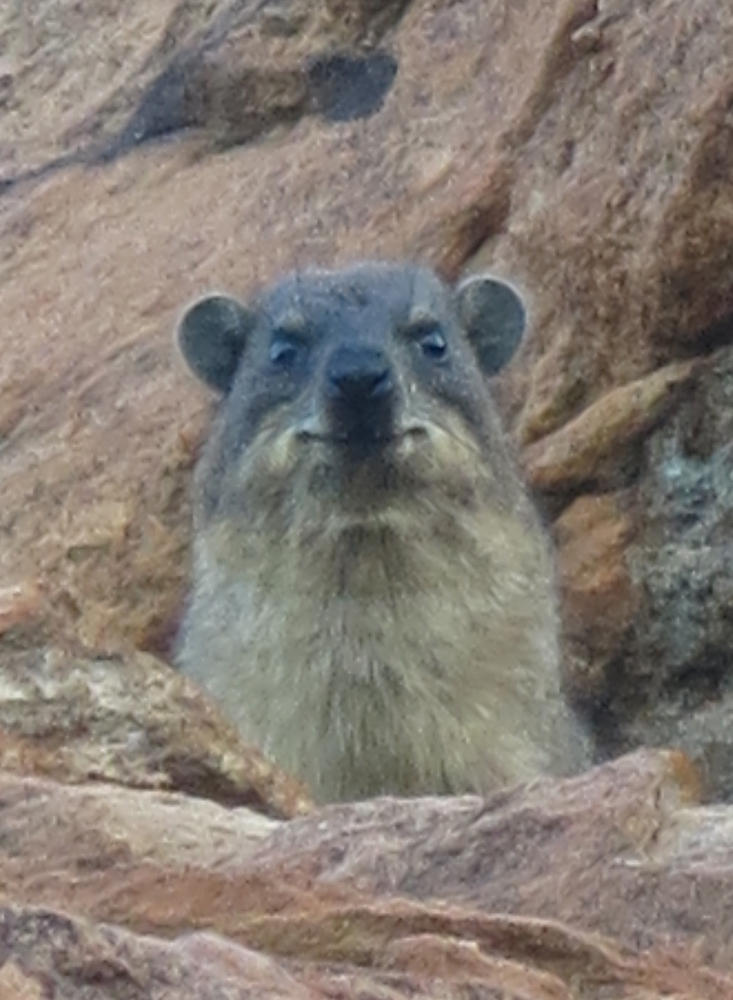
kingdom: Animalia
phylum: Chordata
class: Mammalia
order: Hyracoidea
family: Procaviidae
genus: Procavia
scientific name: Procavia capensis
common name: Rock hyrax
